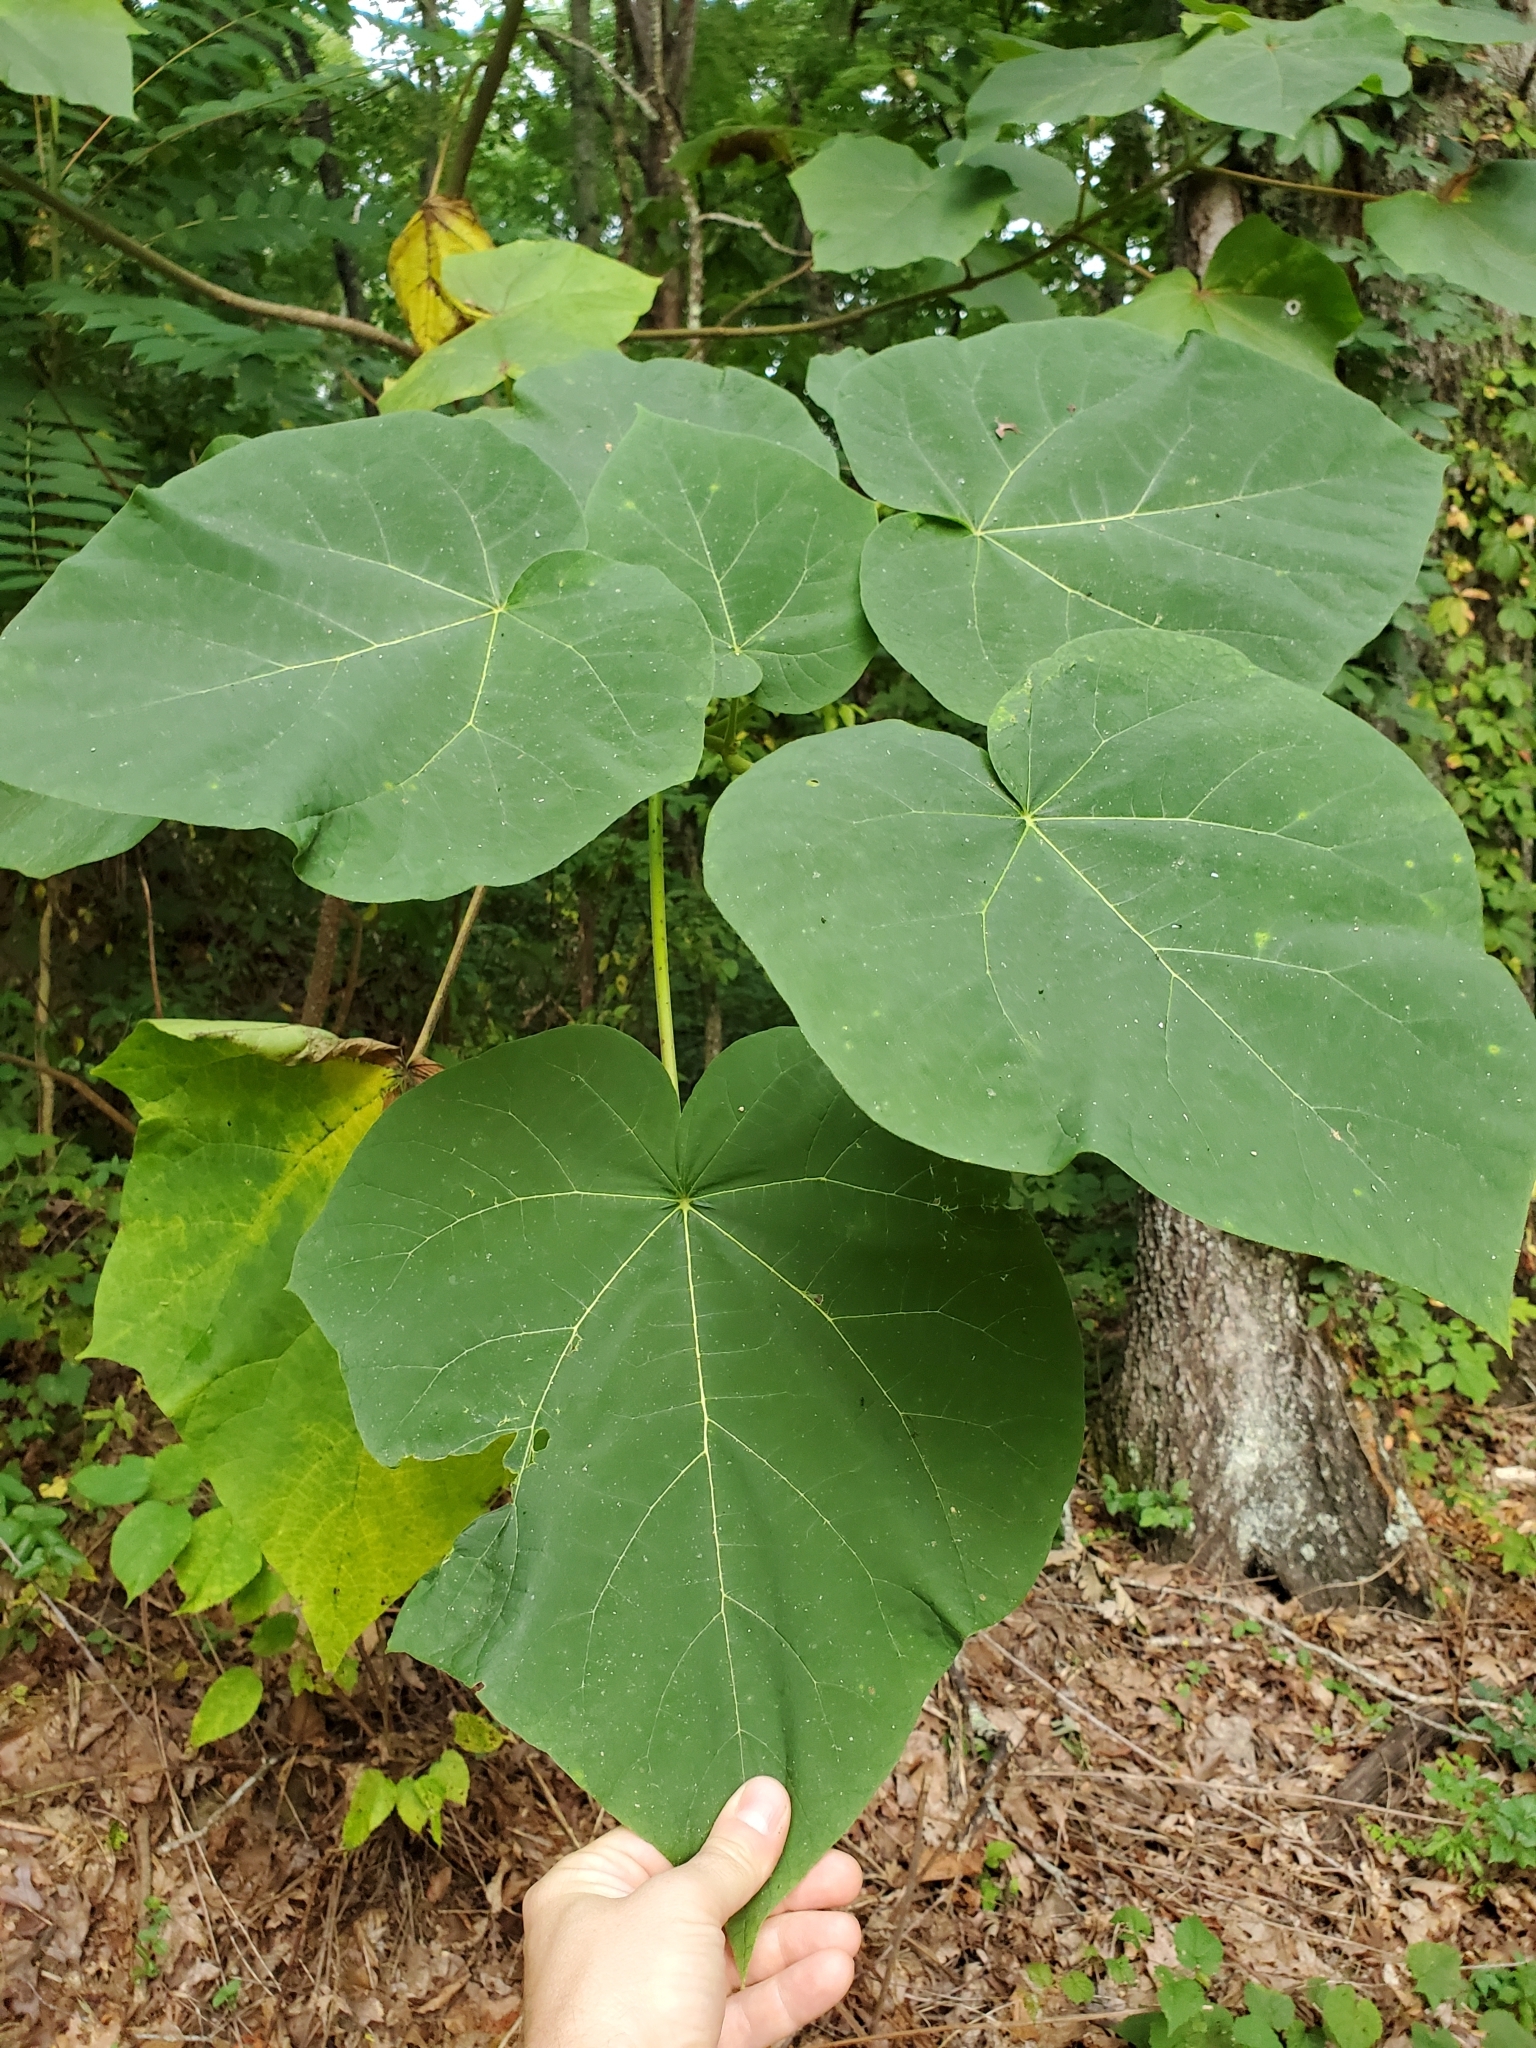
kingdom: Plantae
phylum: Tracheophyta
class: Magnoliopsida
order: Lamiales
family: Paulowniaceae
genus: Paulownia
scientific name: Paulownia tomentosa
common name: Foxglove-tree
